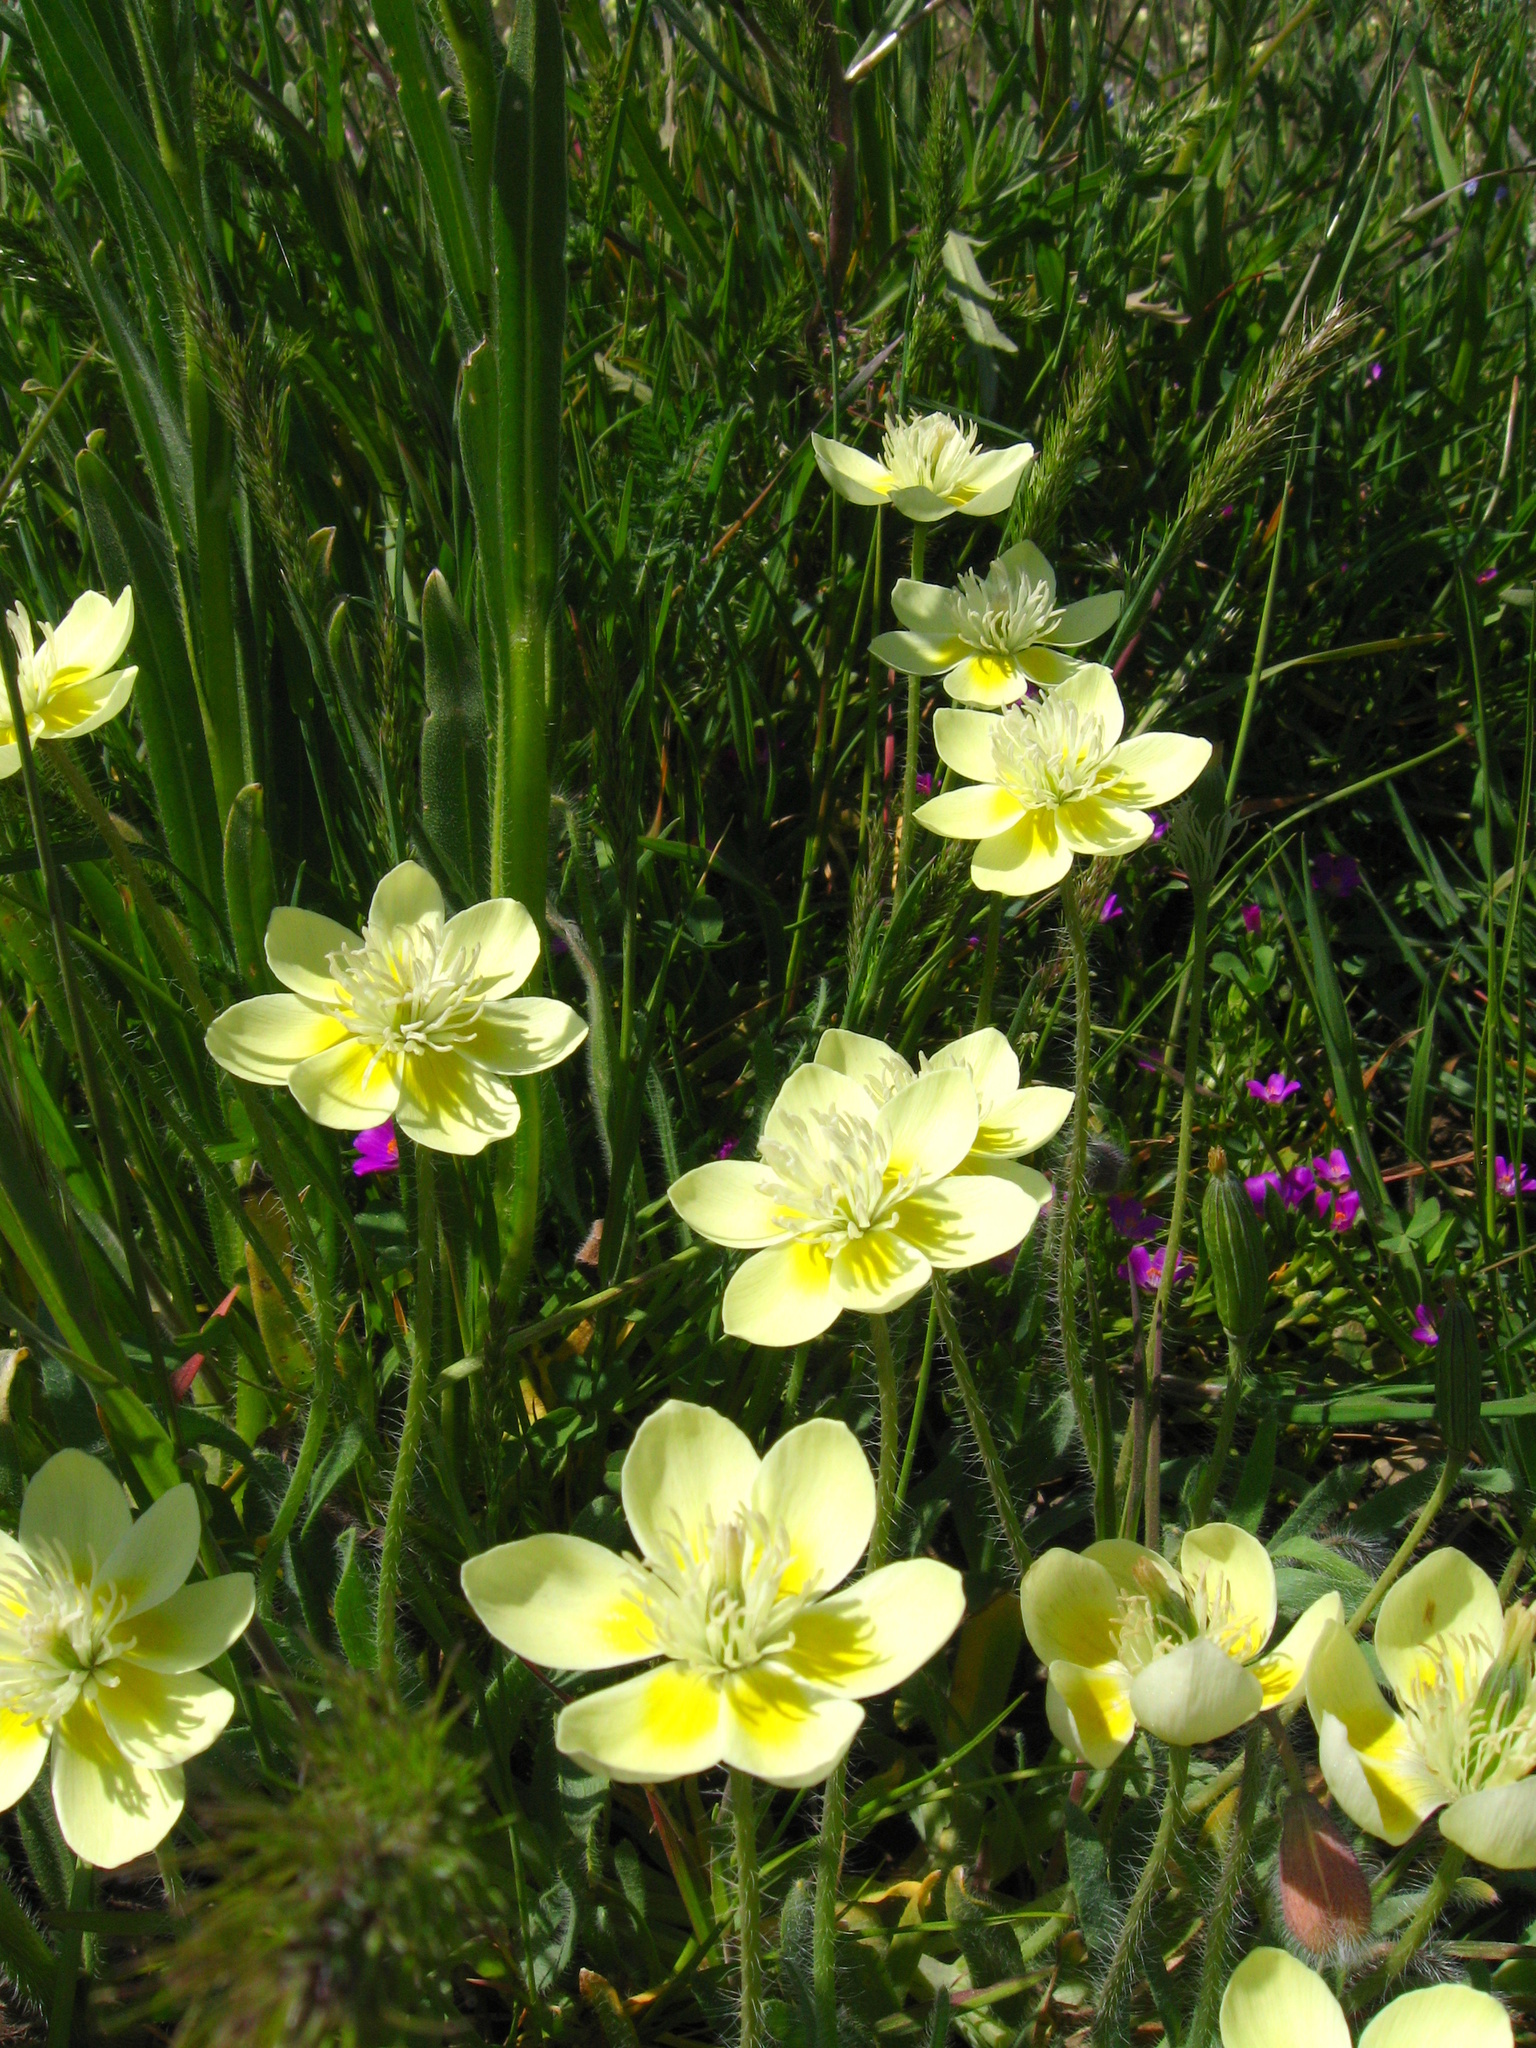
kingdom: Plantae
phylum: Tracheophyta
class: Magnoliopsida
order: Ranunculales
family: Papaveraceae
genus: Platystemon
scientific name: Platystemon californicus
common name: Cream-cups
